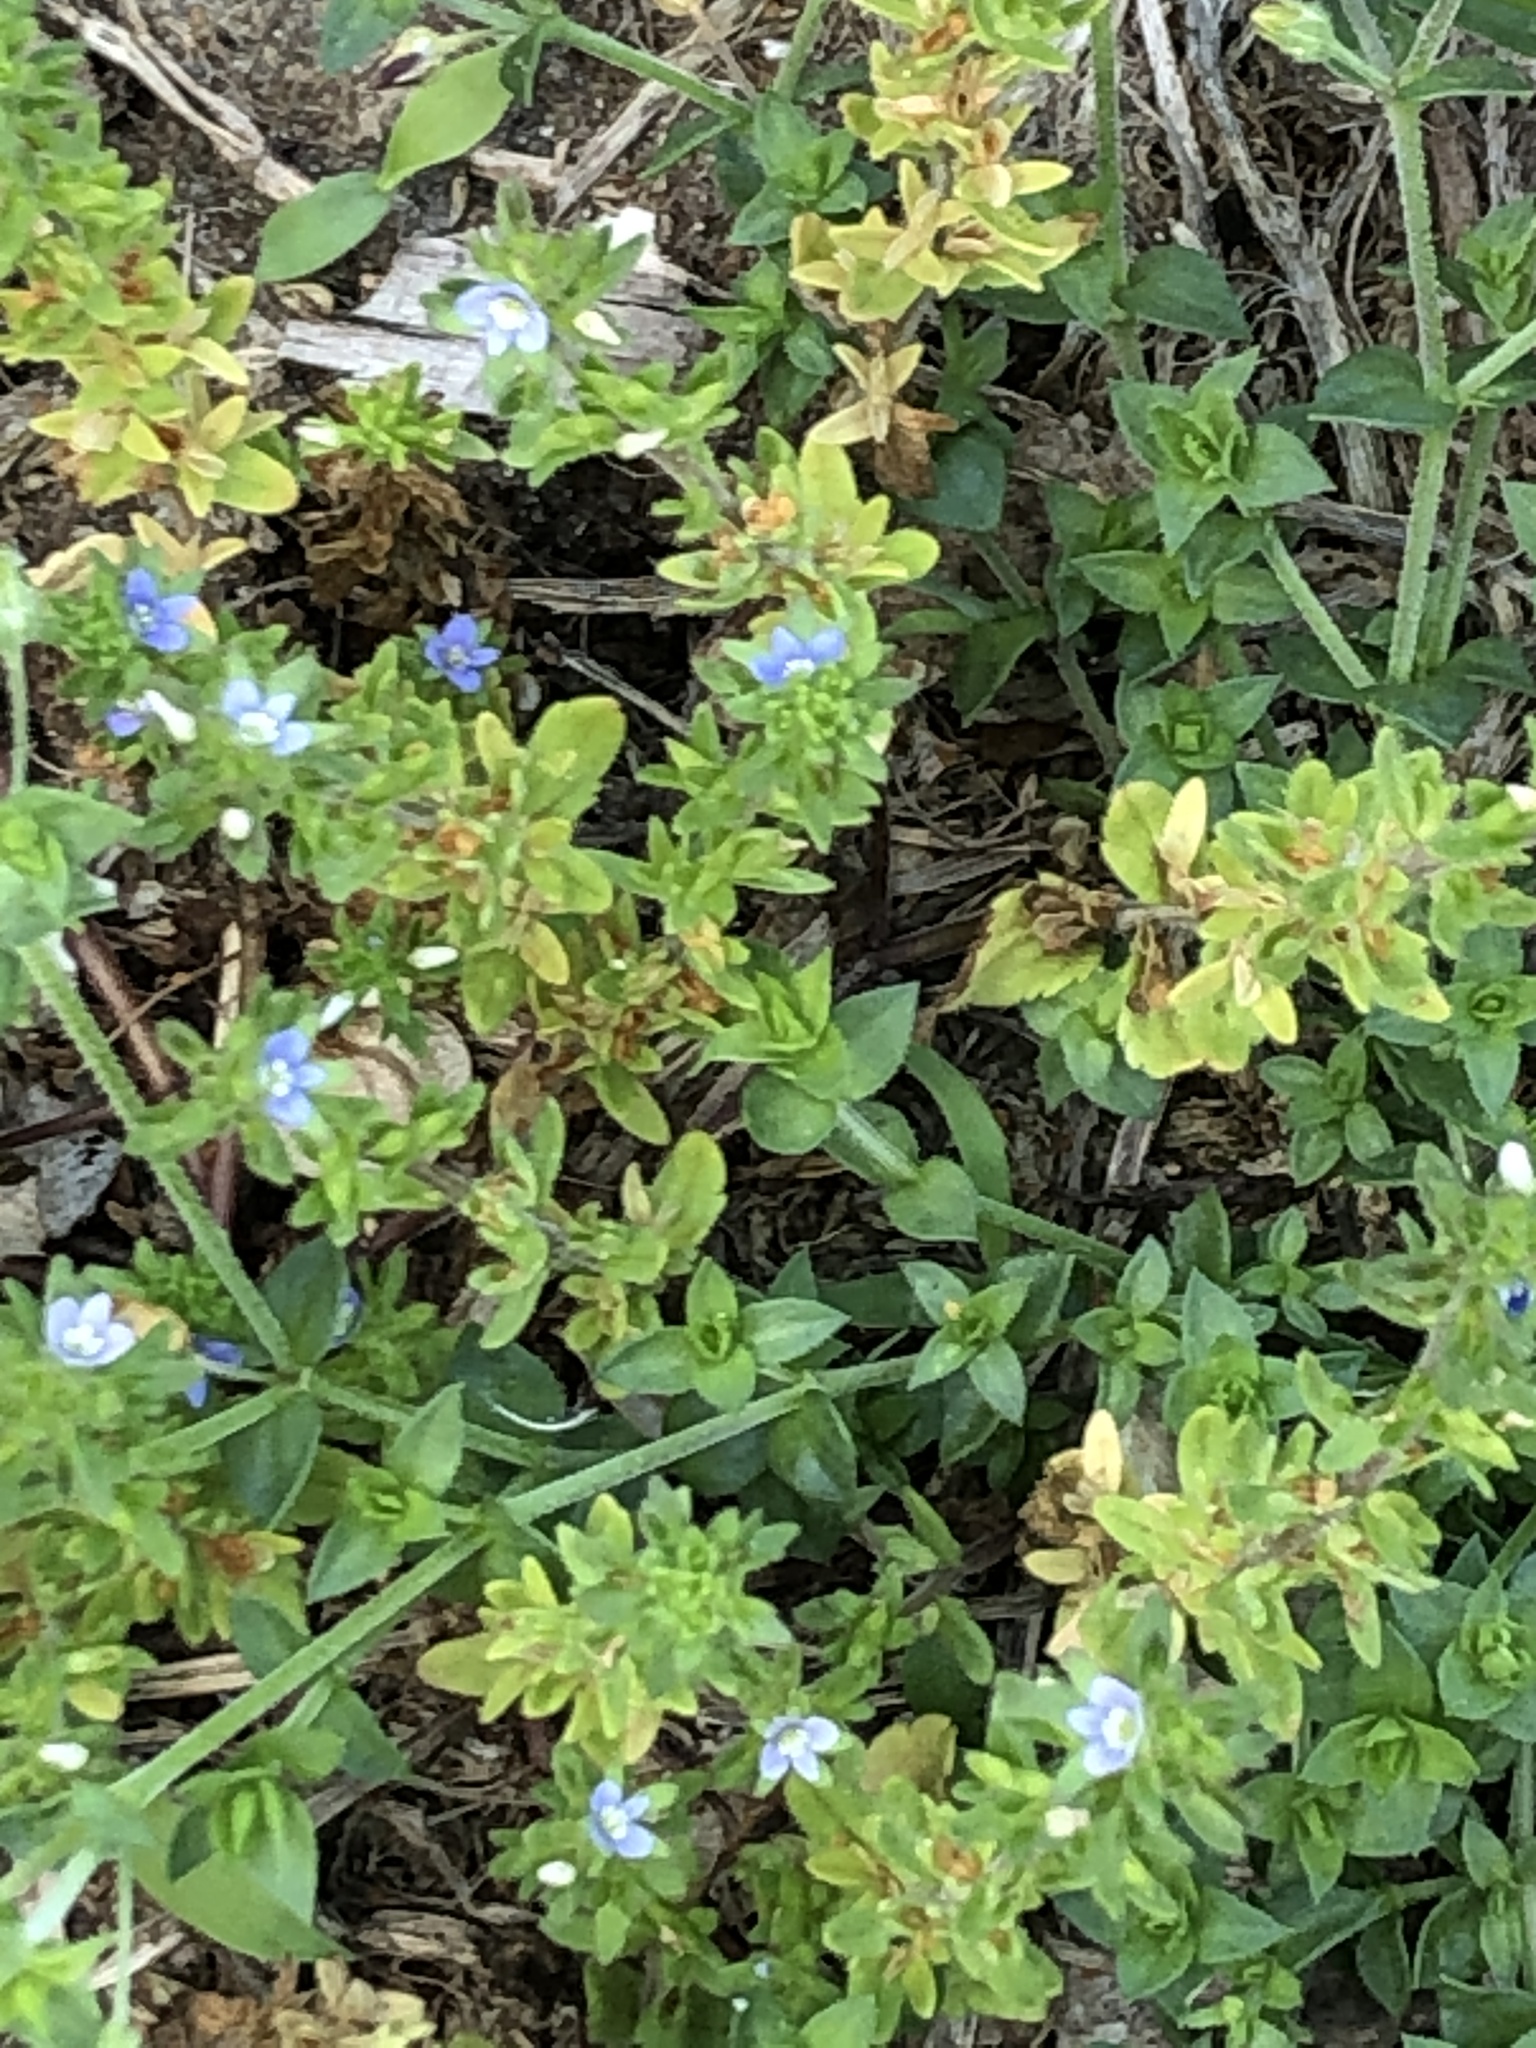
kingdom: Plantae
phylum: Tracheophyta
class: Magnoliopsida
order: Lamiales
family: Plantaginaceae
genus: Veronica
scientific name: Veronica arvensis
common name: Corn speedwell
